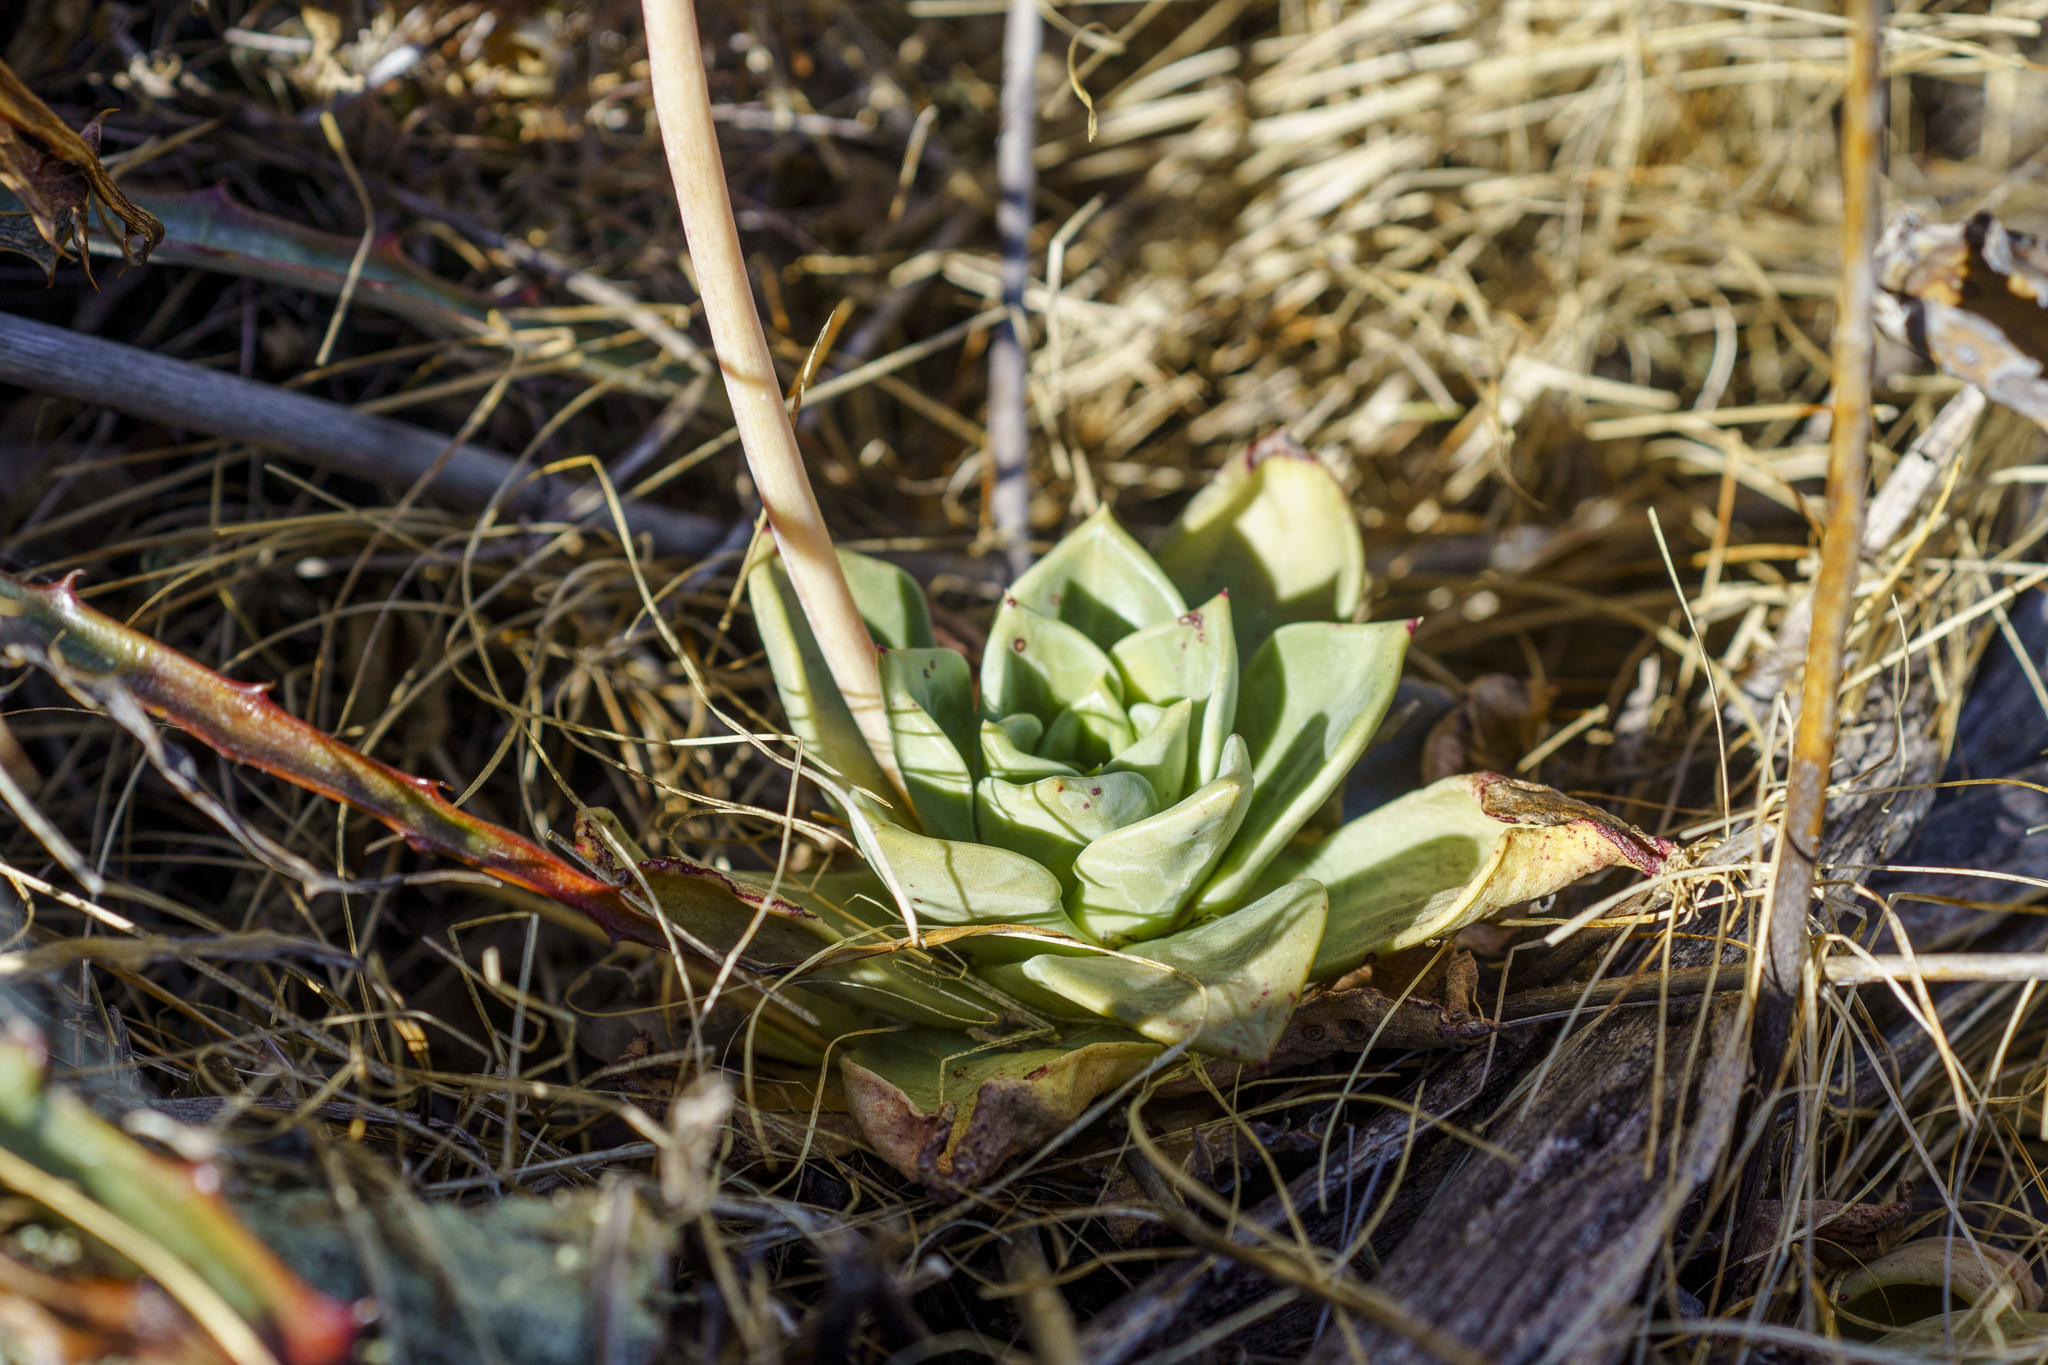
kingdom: Plantae
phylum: Tracheophyta
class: Magnoliopsida
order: Saxifragales
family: Crassulaceae
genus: Dudleya
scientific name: Dudleya rigida
